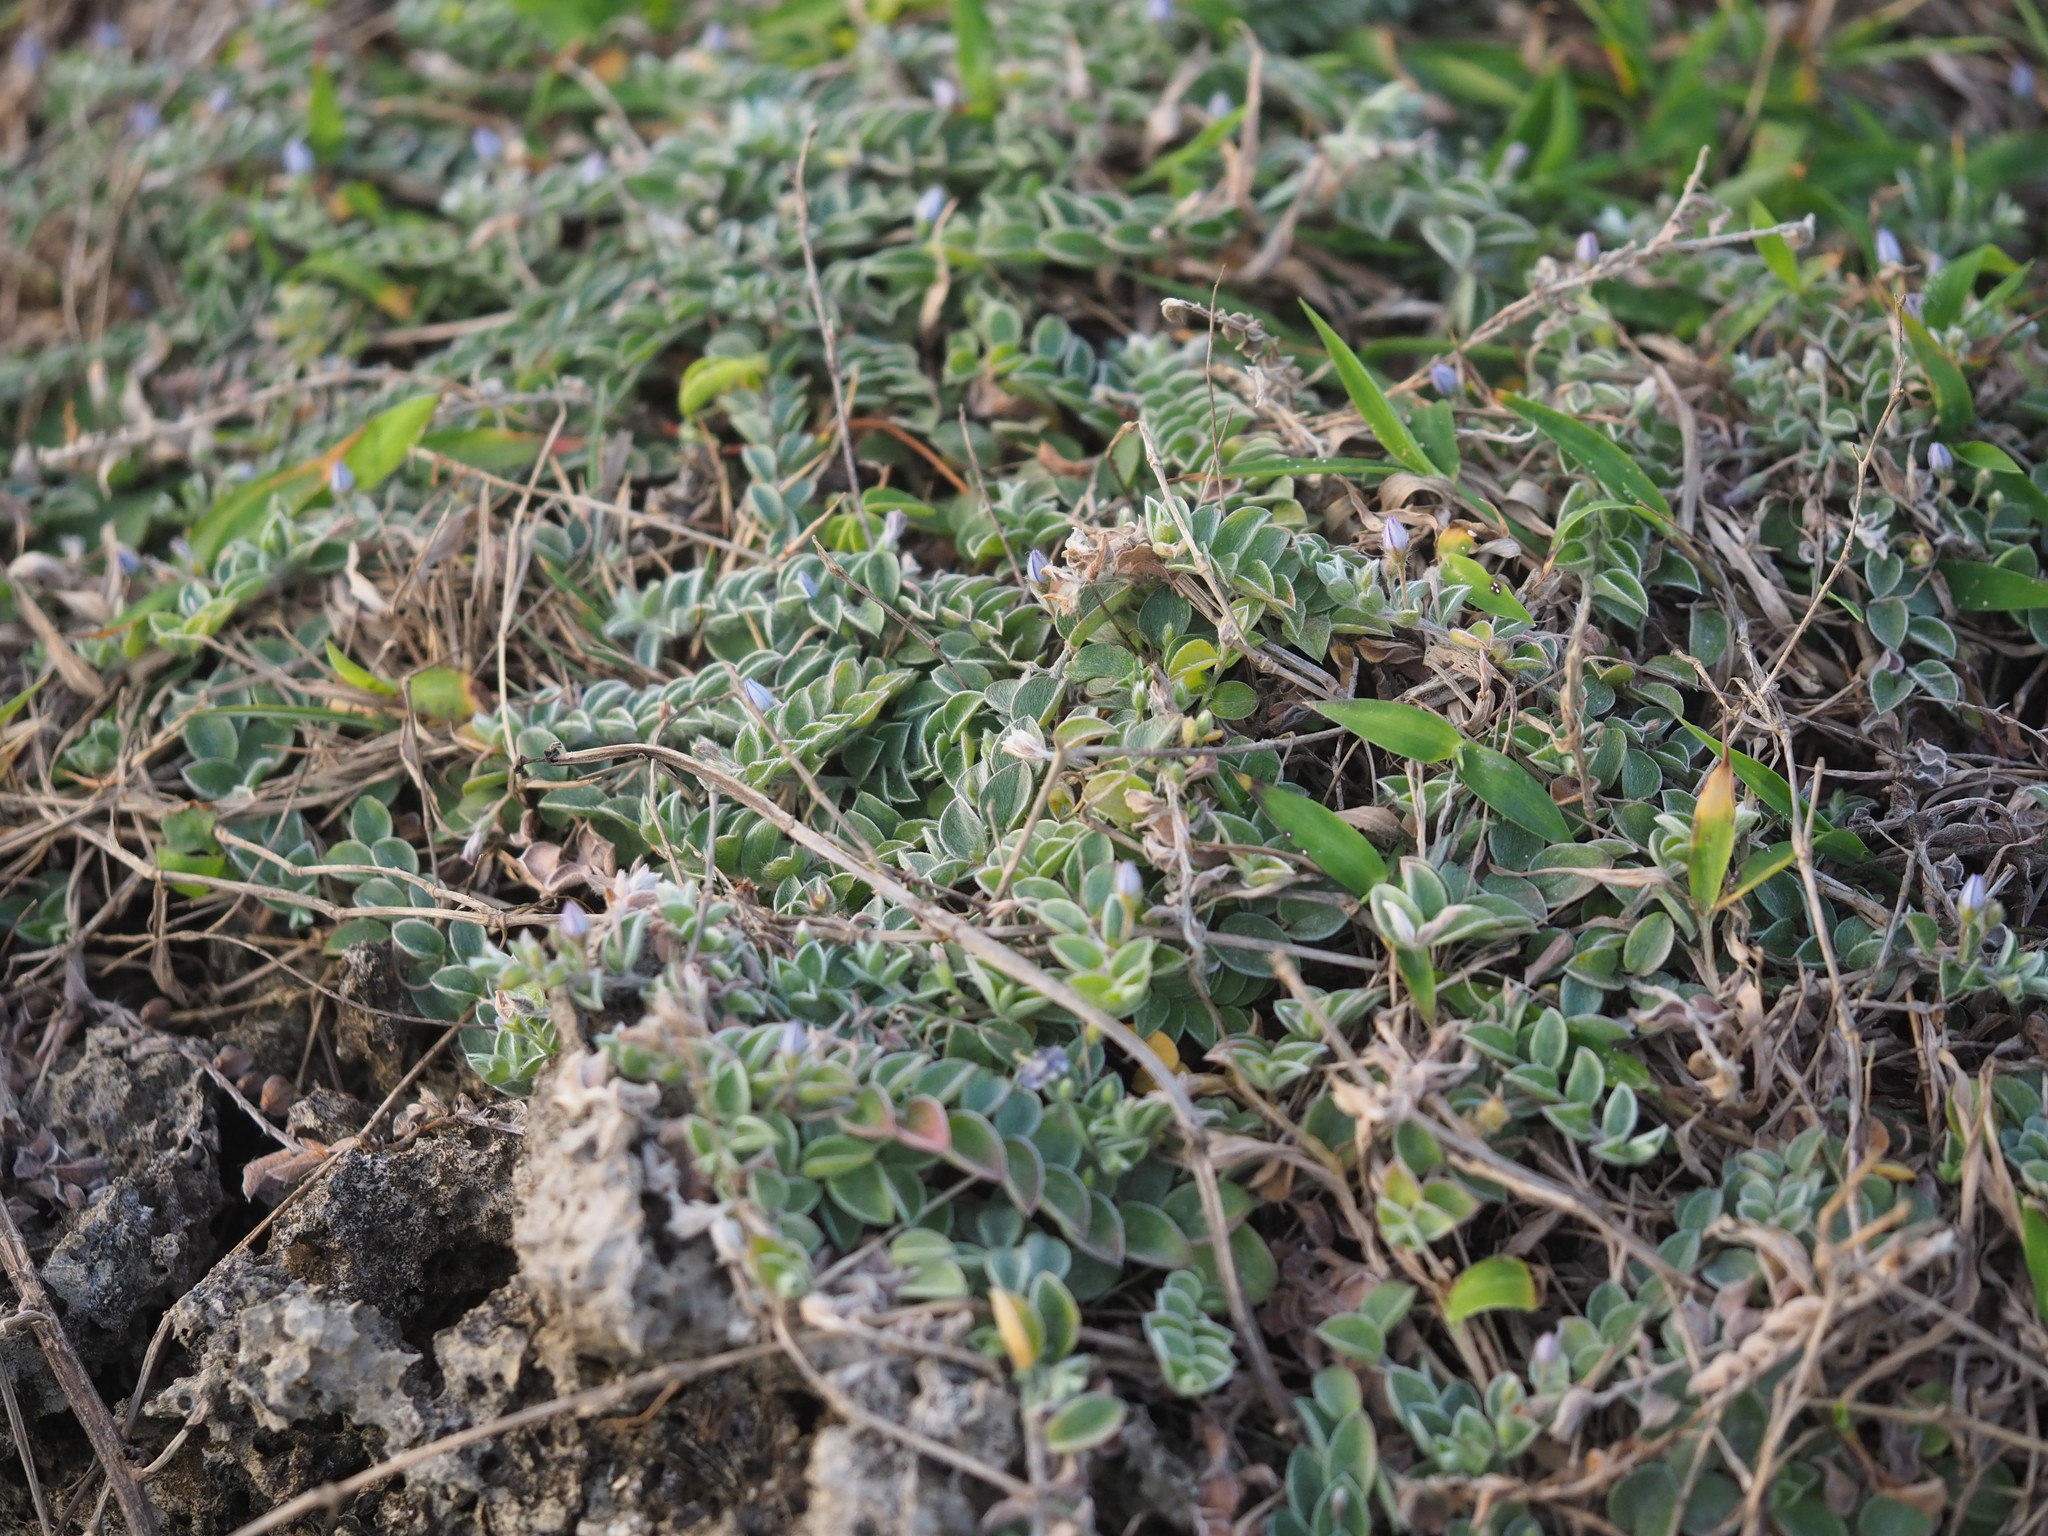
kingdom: Plantae
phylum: Tracheophyta
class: Magnoliopsida
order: Solanales
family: Convolvulaceae
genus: Evolvulus
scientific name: Evolvulus alsinoides
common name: Slender dwarf morning-glory
